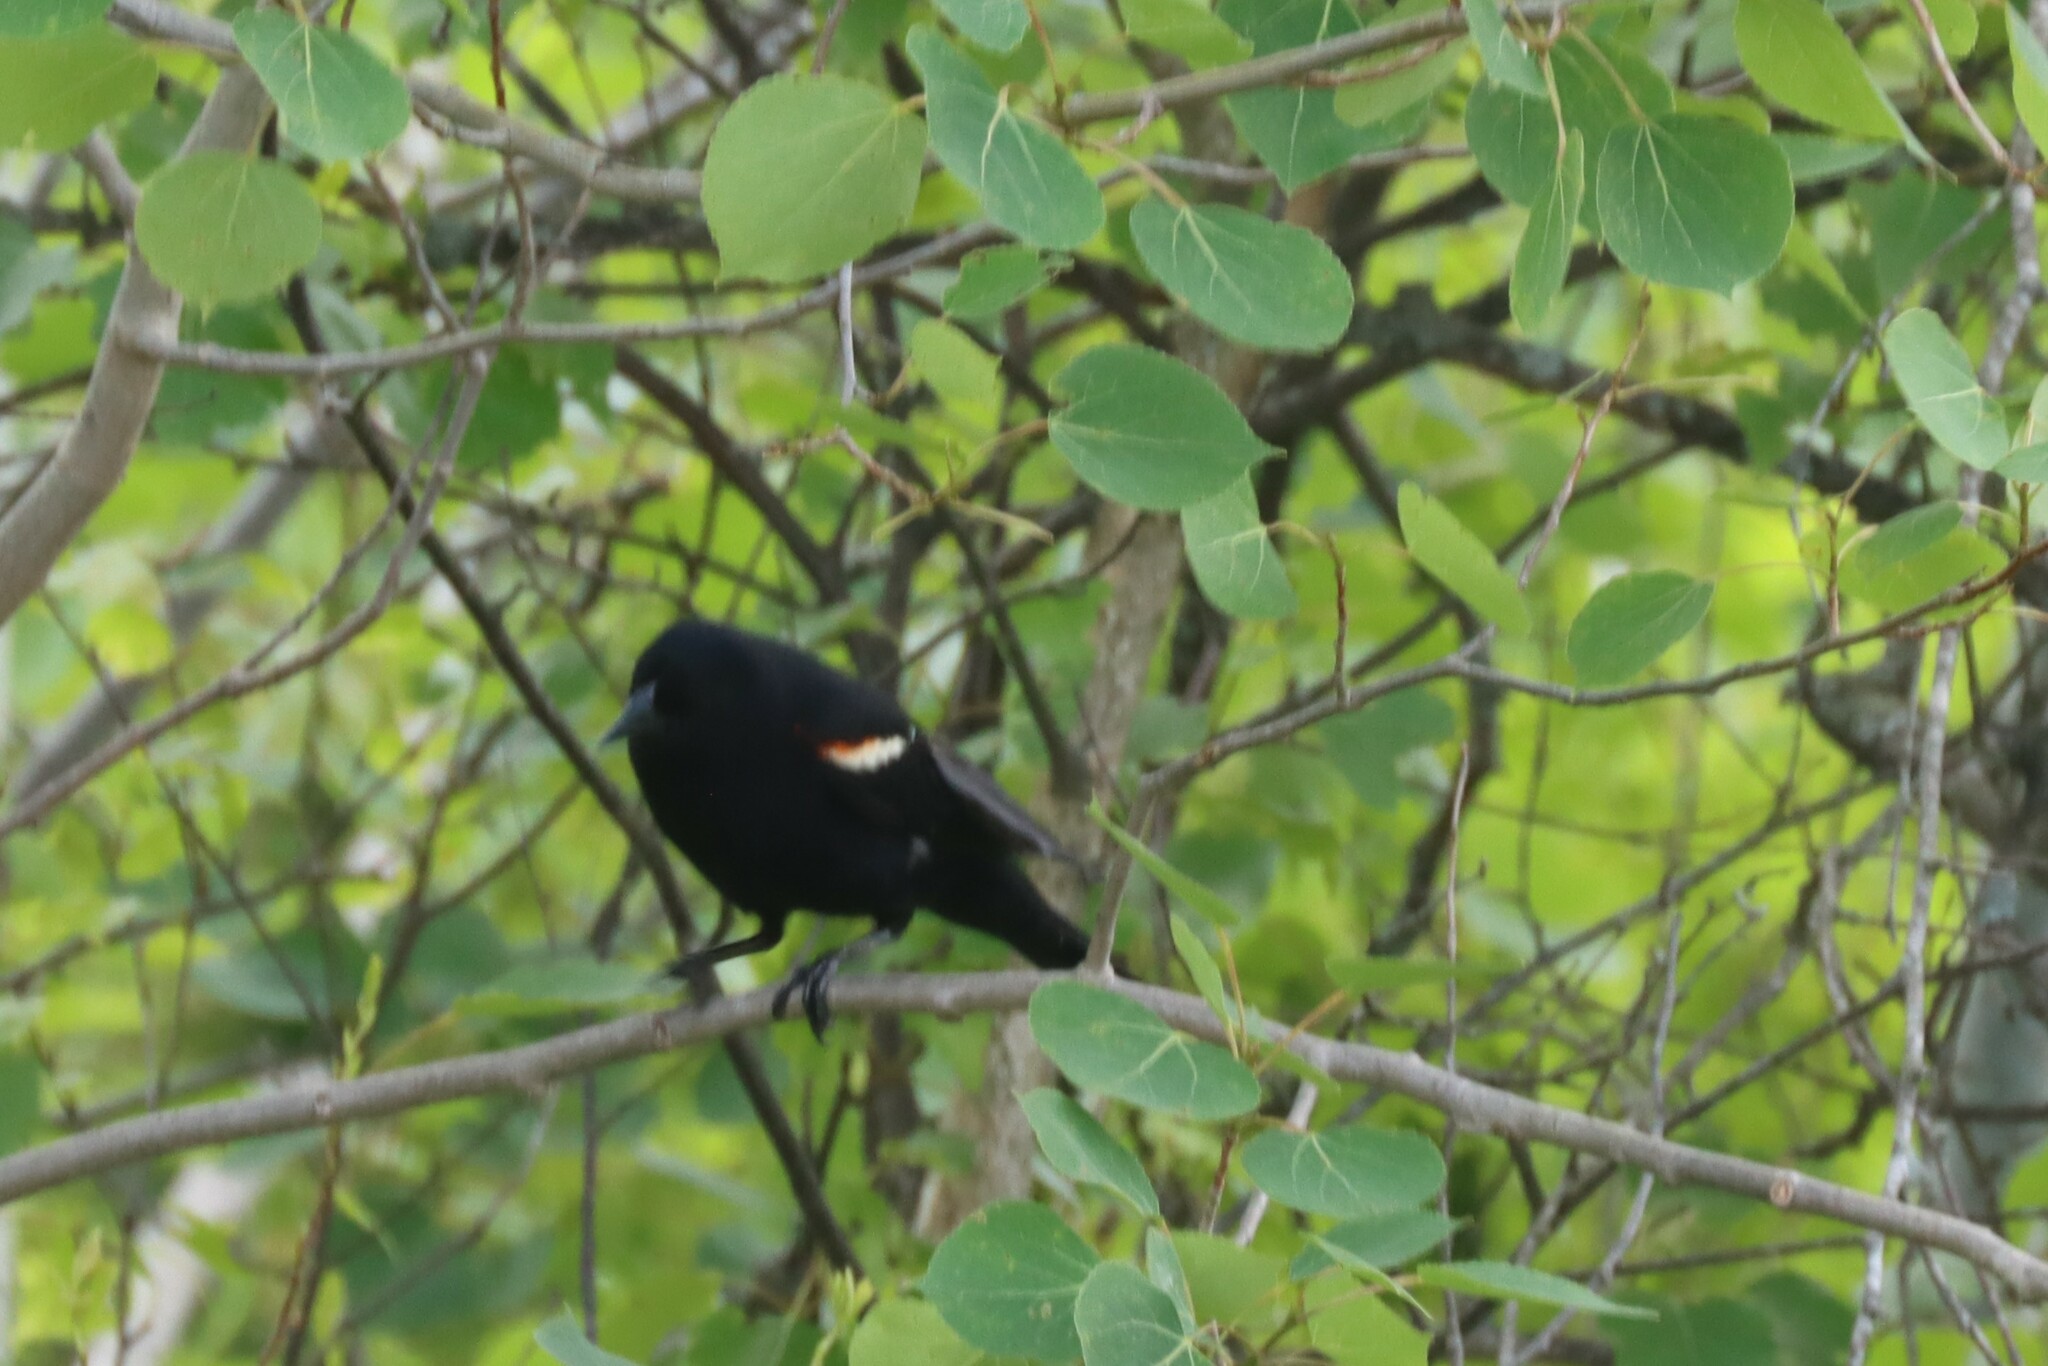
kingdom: Animalia
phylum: Chordata
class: Aves
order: Passeriformes
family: Icteridae
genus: Agelaius
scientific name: Agelaius phoeniceus
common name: Red-winged blackbird
